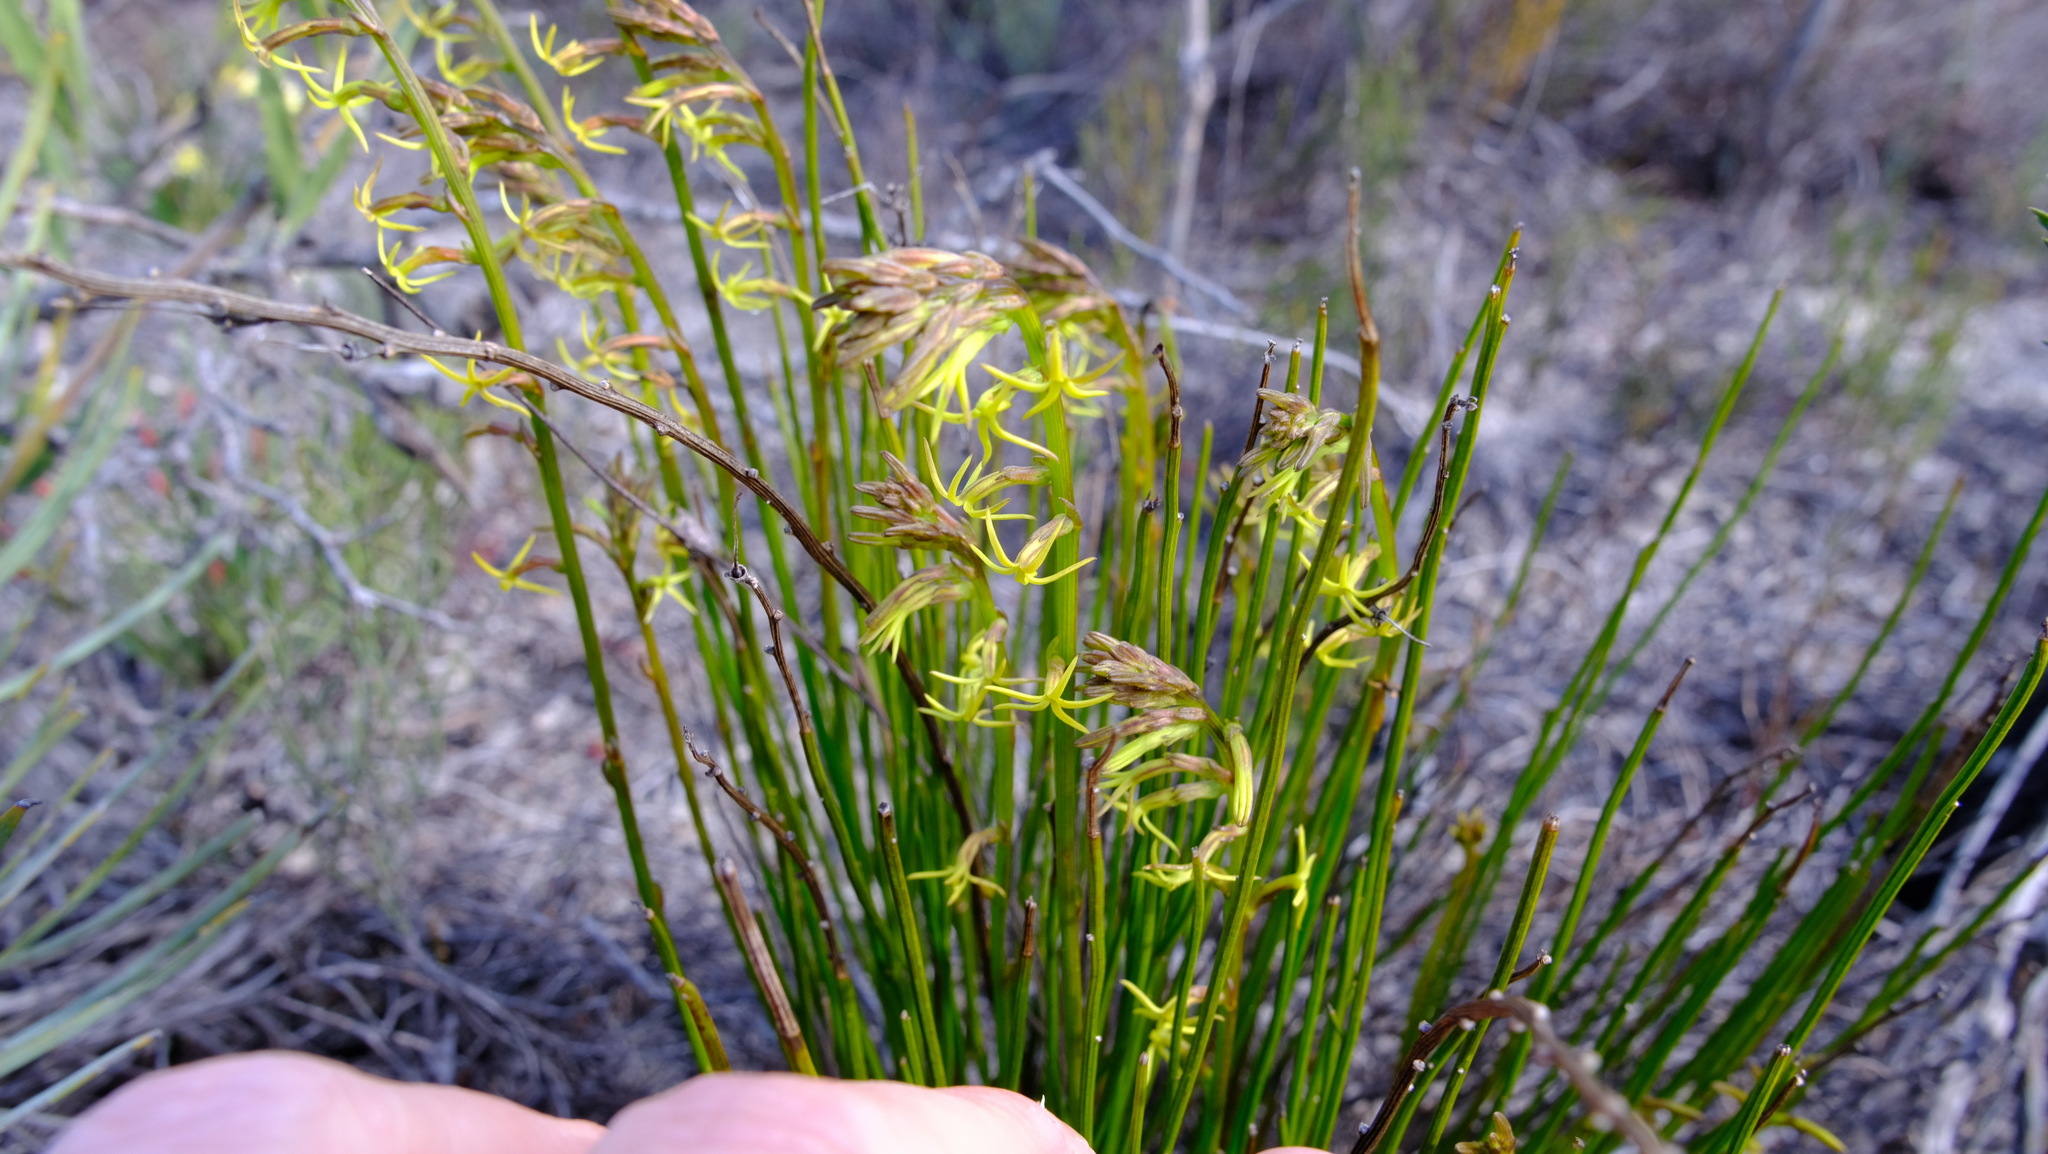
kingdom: Plantae
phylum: Tracheophyta
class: Magnoliopsida
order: Celastrales
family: Celastraceae
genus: Tripterococcus
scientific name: Tripterococcus brunonis
